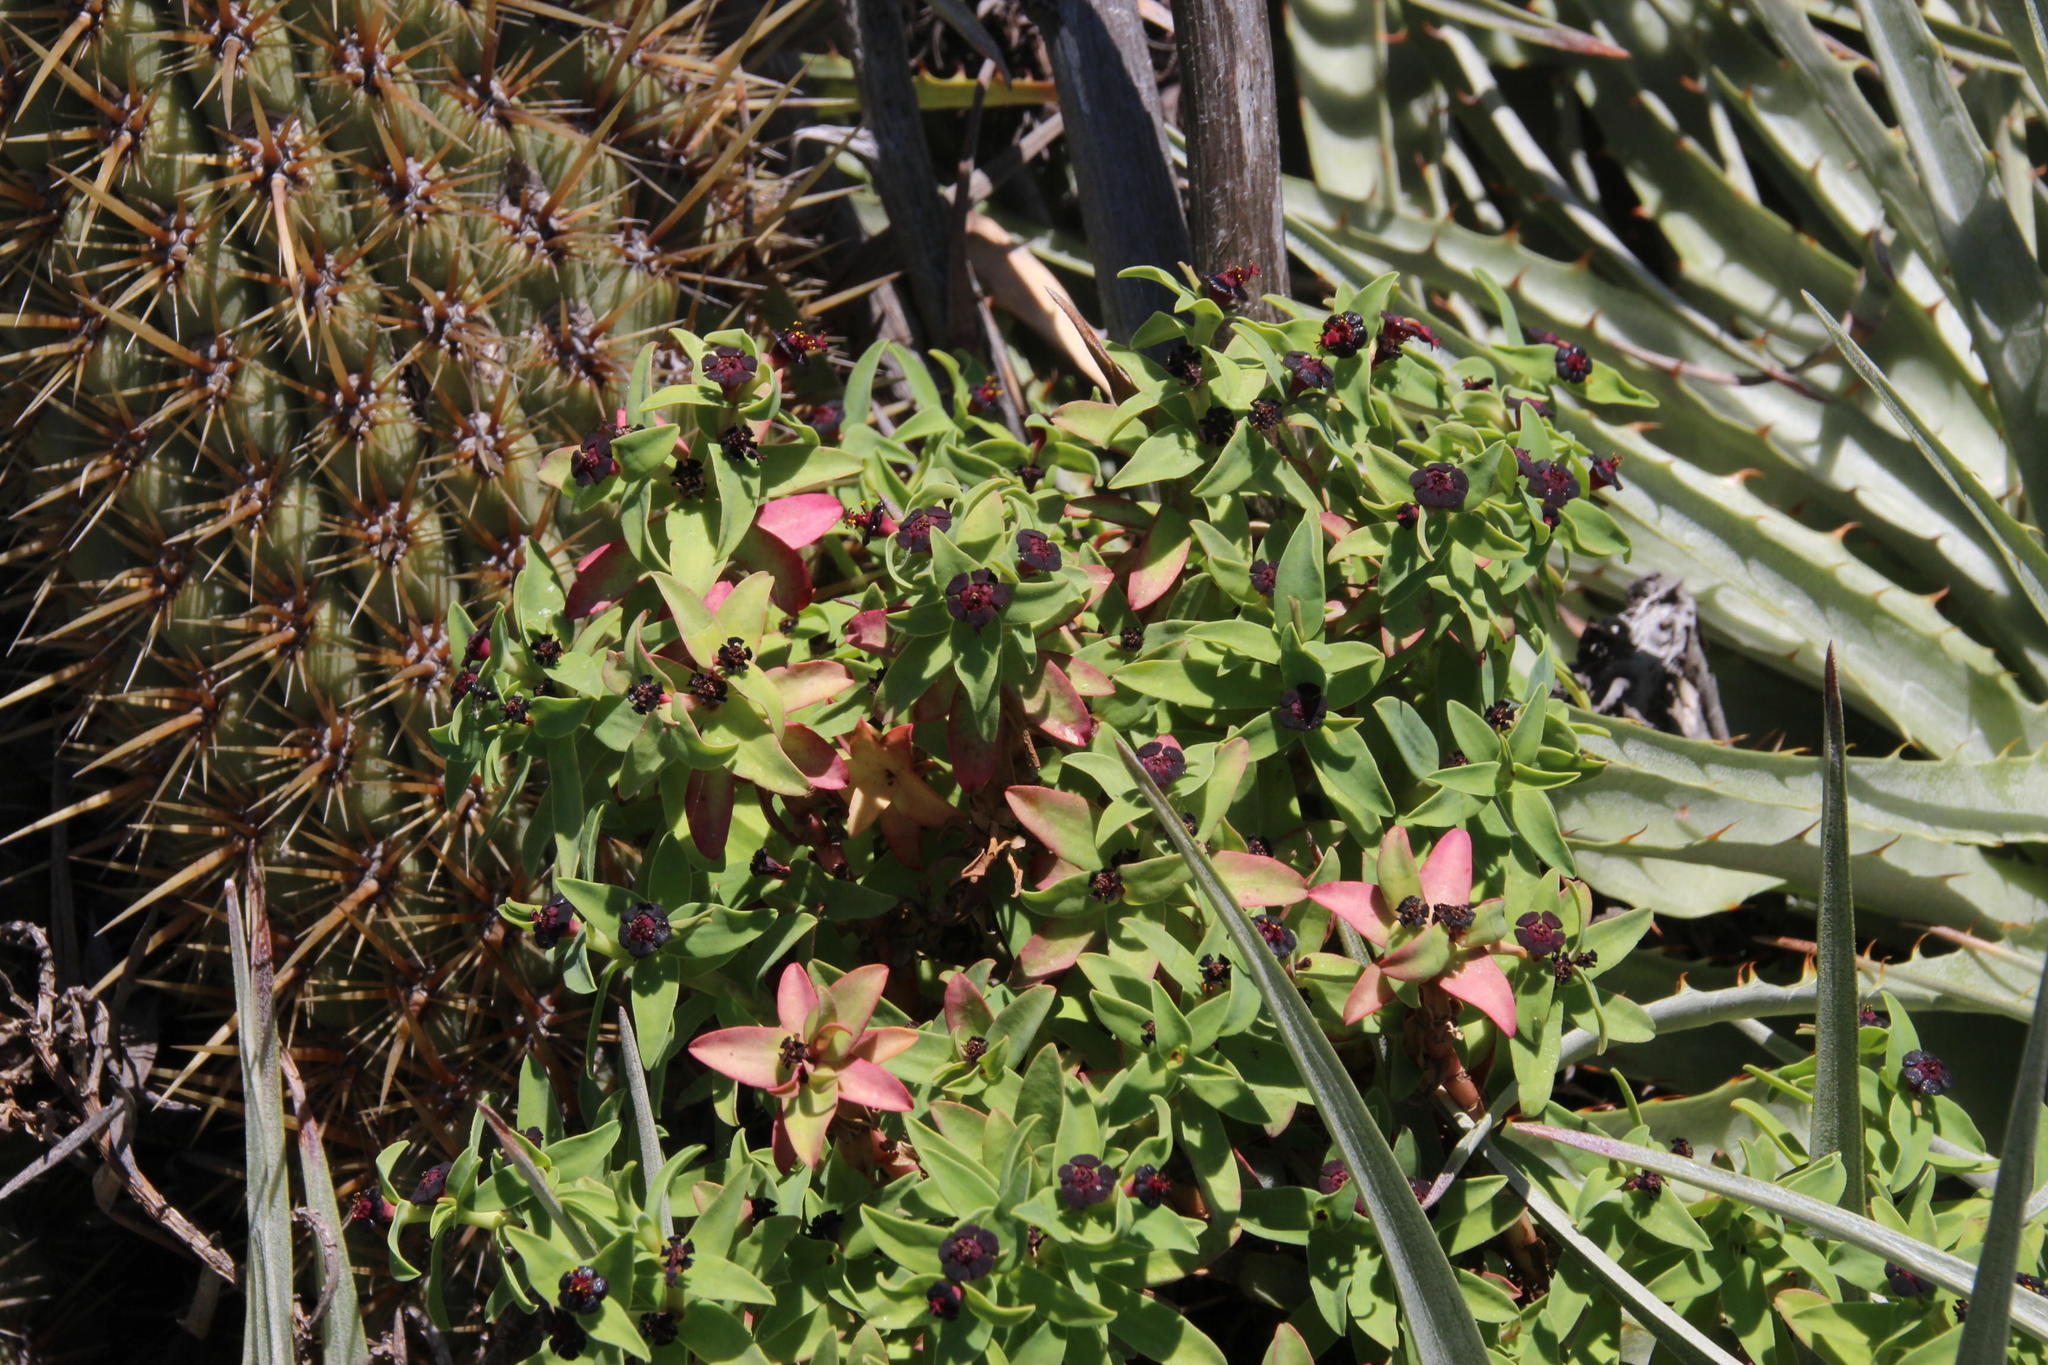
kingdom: Plantae
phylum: Tracheophyta
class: Magnoliopsida
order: Malpighiales
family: Euphorbiaceae
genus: Euphorbia
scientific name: Euphorbia portulacoides
